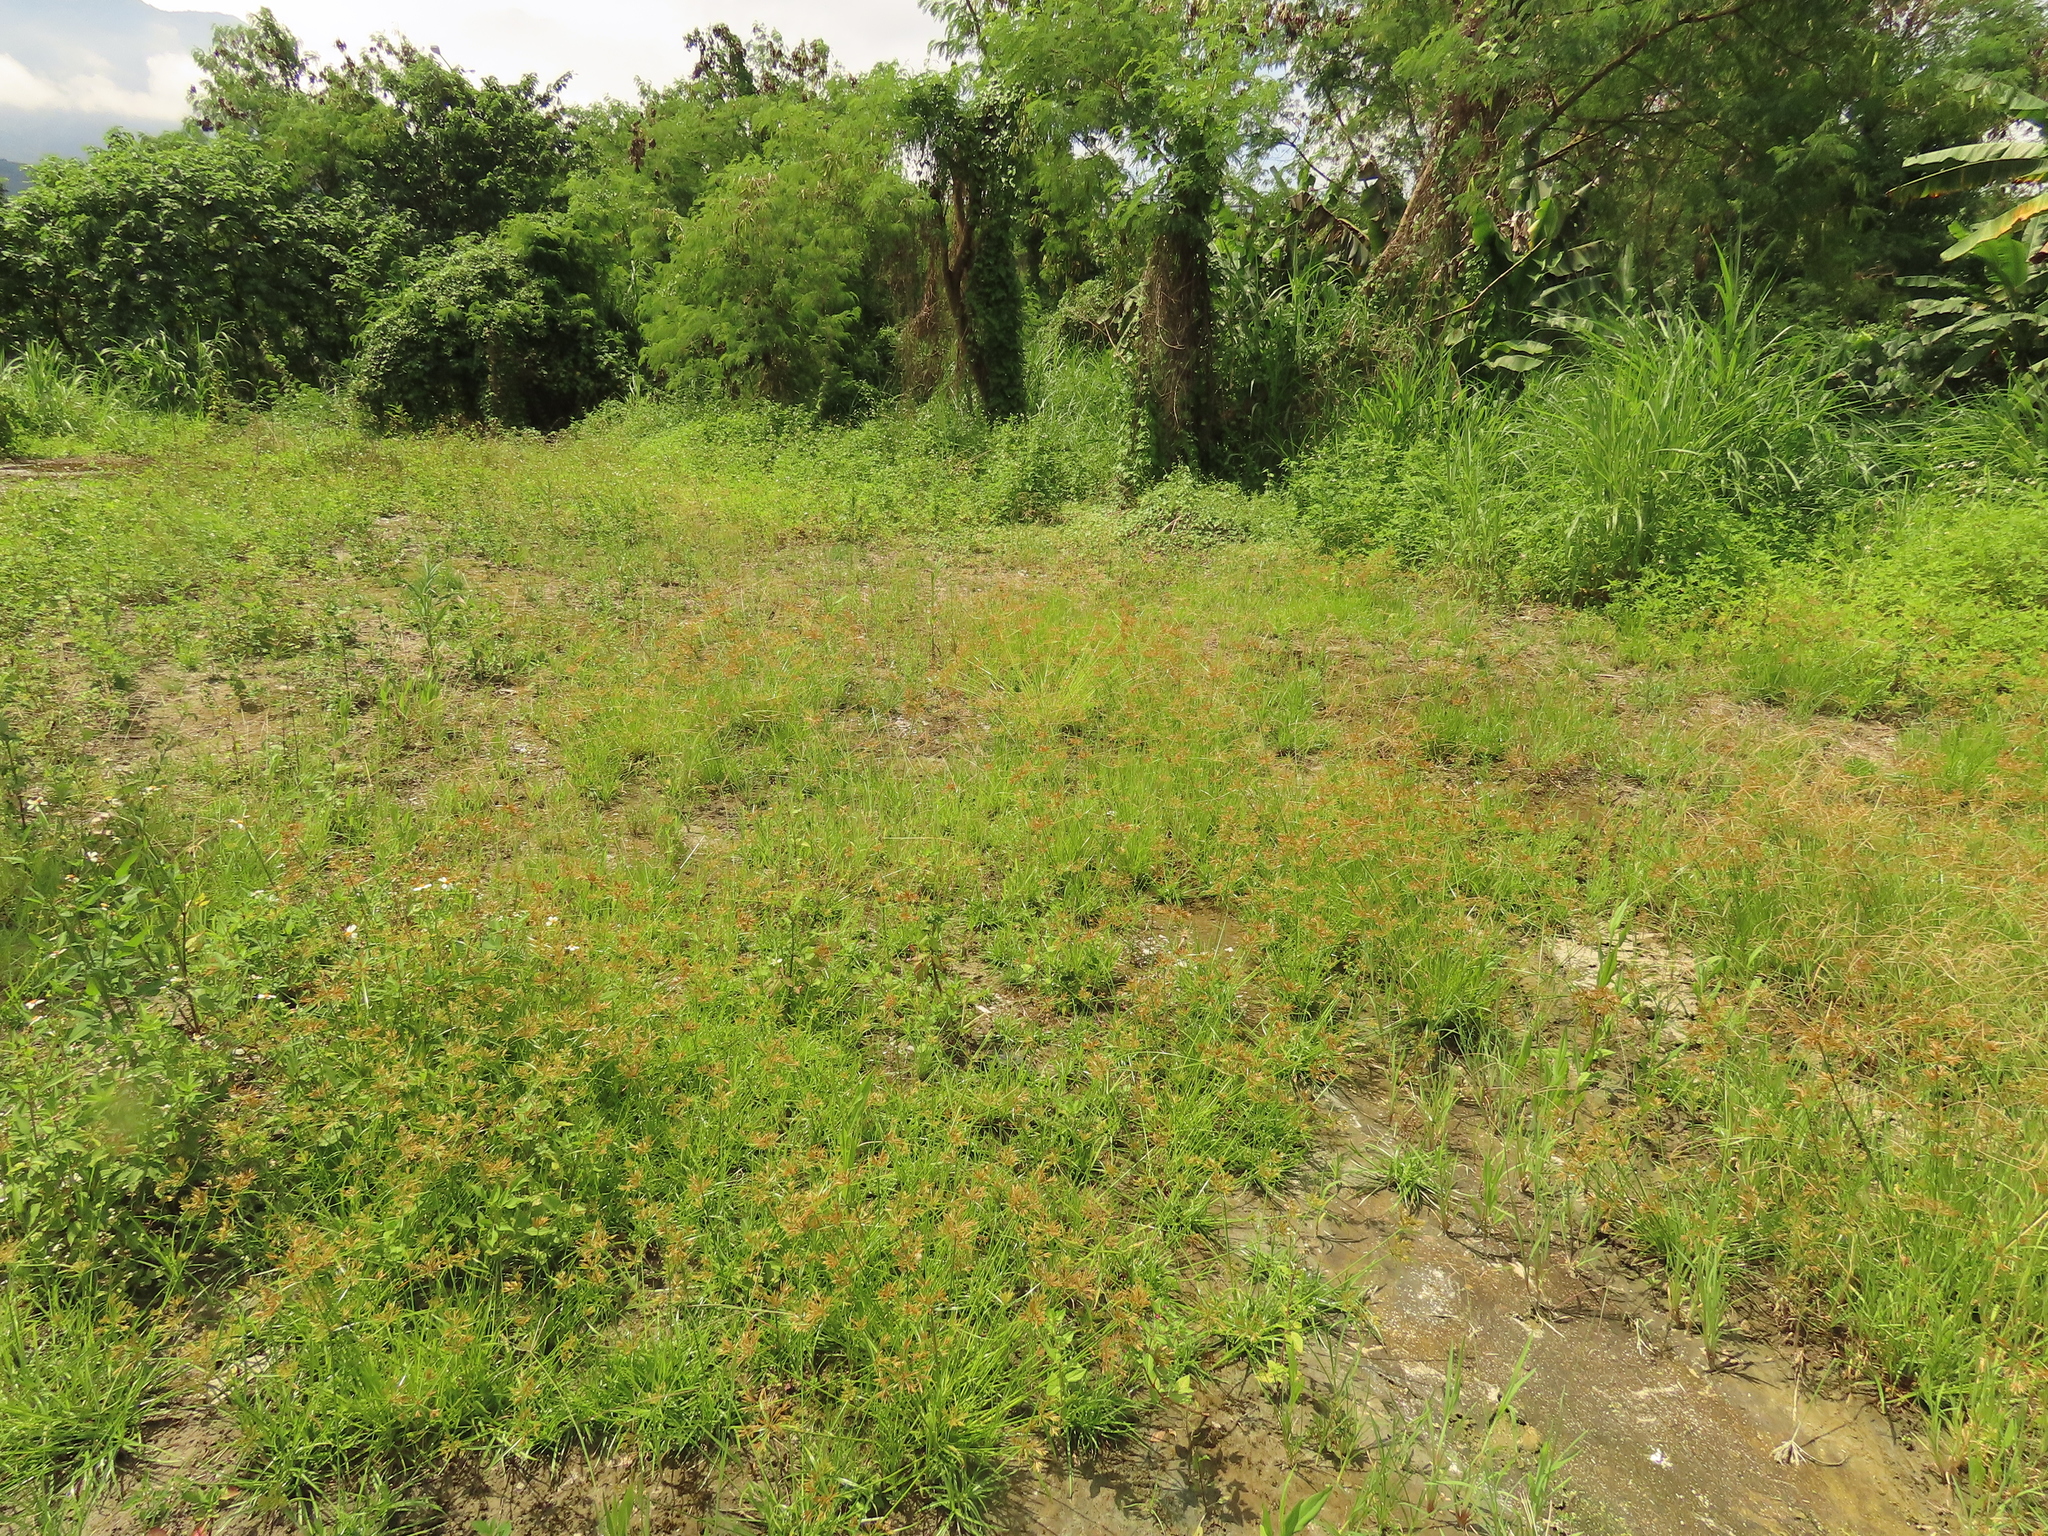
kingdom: Plantae
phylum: Tracheophyta
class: Liliopsida
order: Poales
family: Cyperaceae
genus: Cyperus
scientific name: Cyperus polystachyos
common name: Bunchy flat sedge
